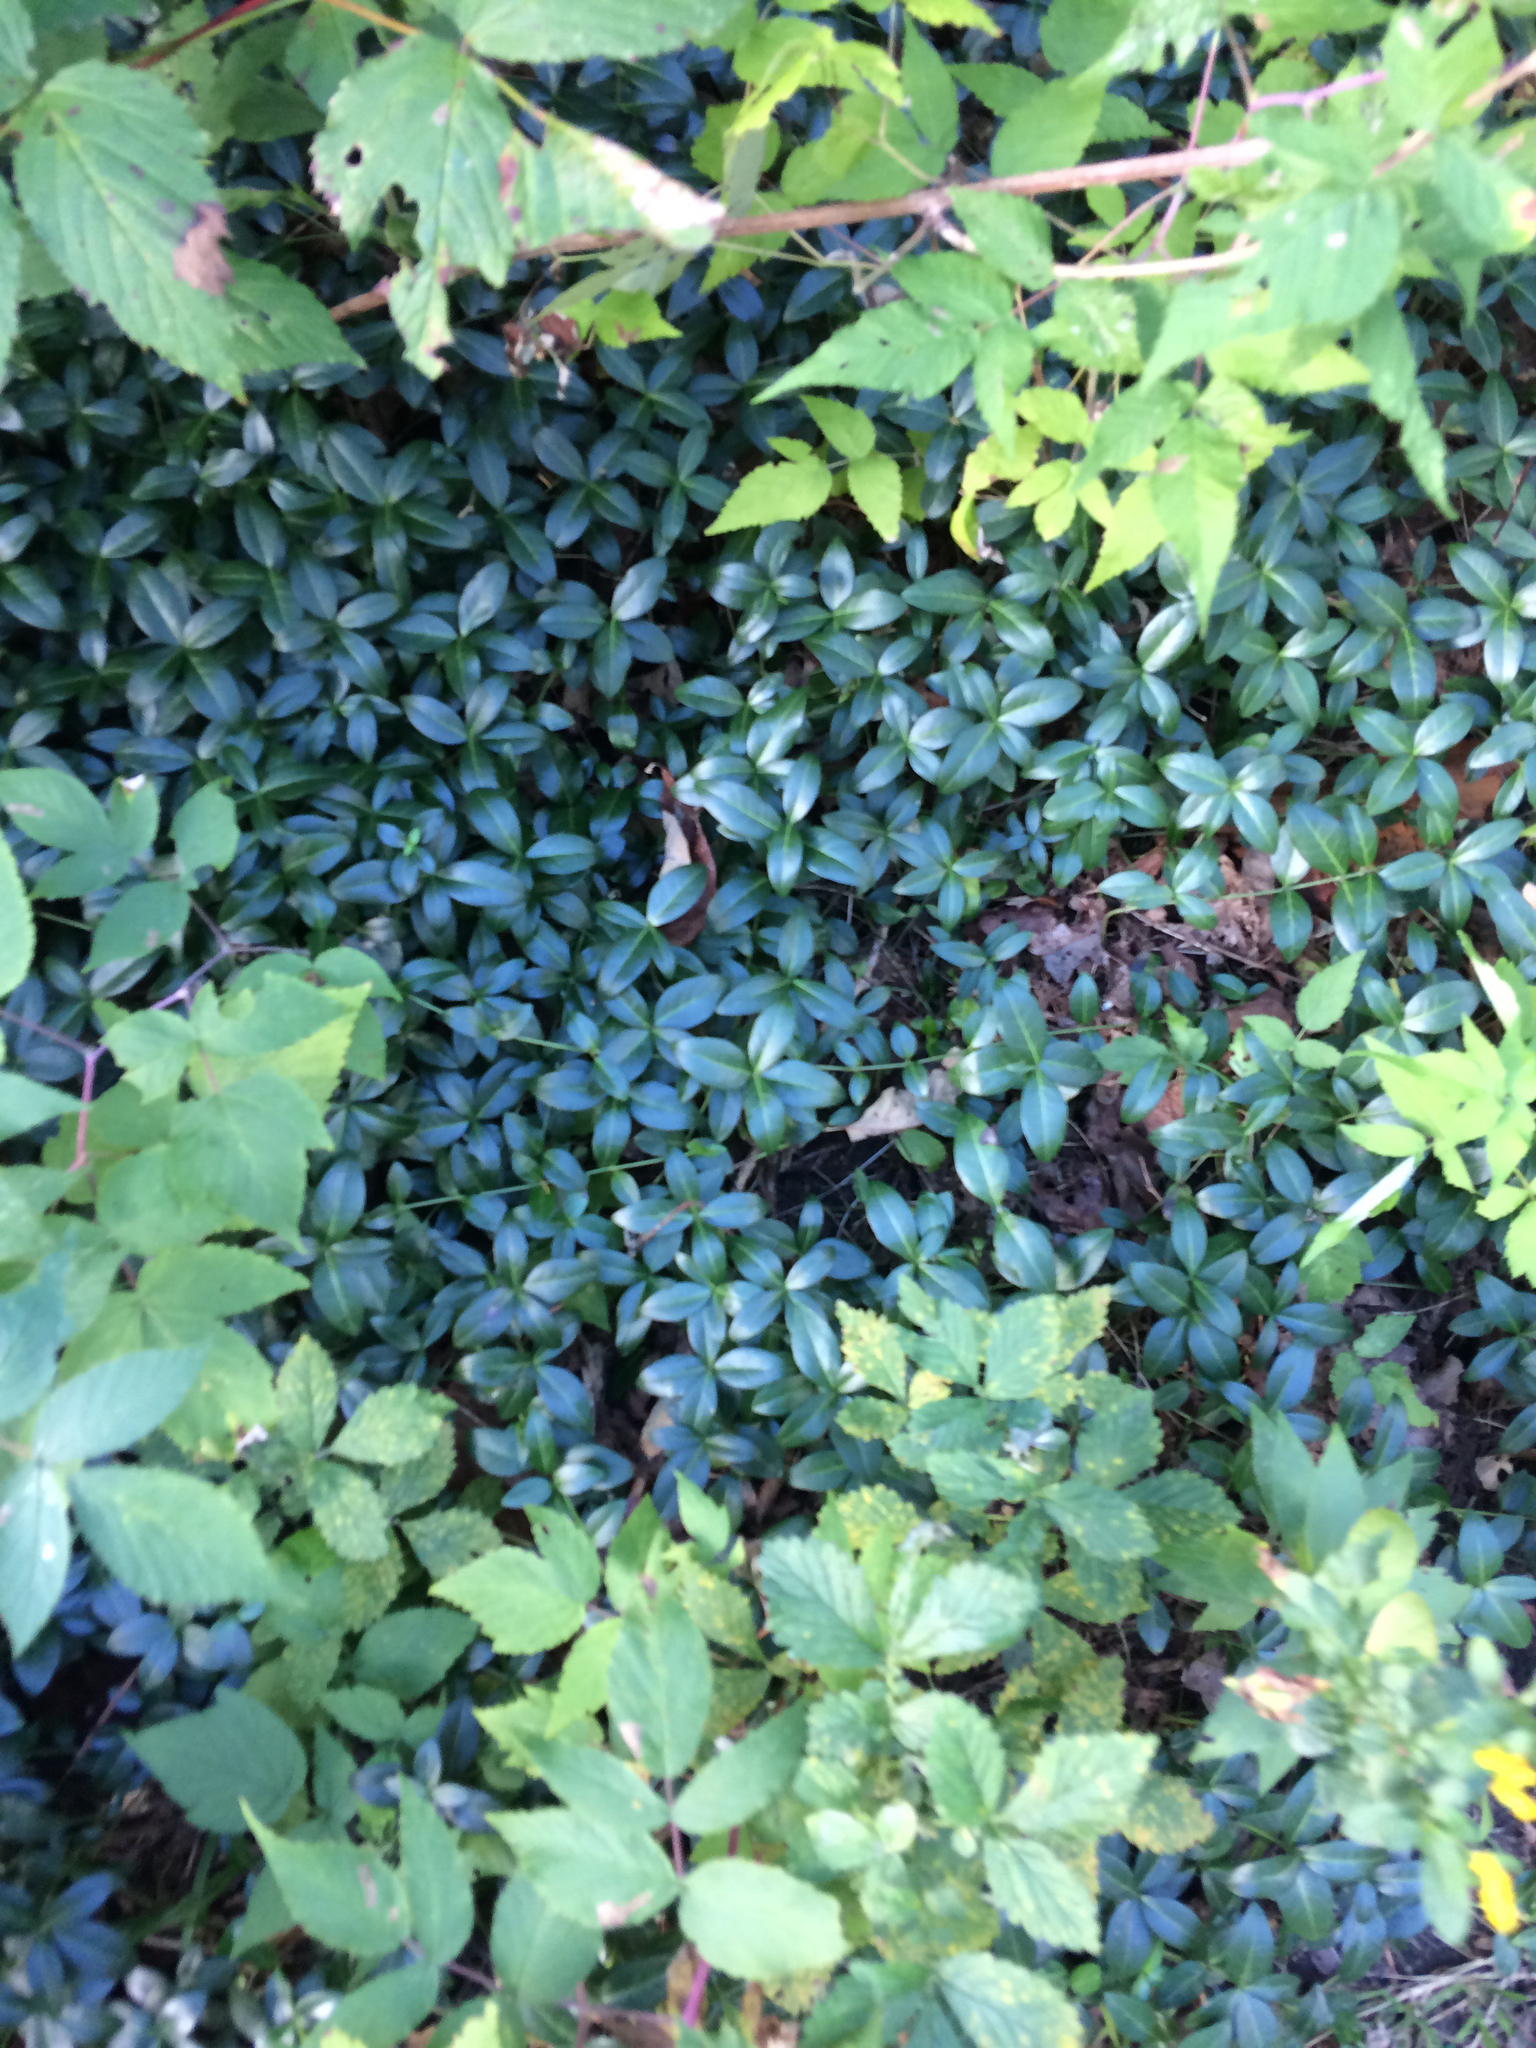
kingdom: Plantae
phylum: Tracheophyta
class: Magnoliopsida
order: Gentianales
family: Apocynaceae
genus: Vinca
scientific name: Vinca minor
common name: Lesser periwinkle
